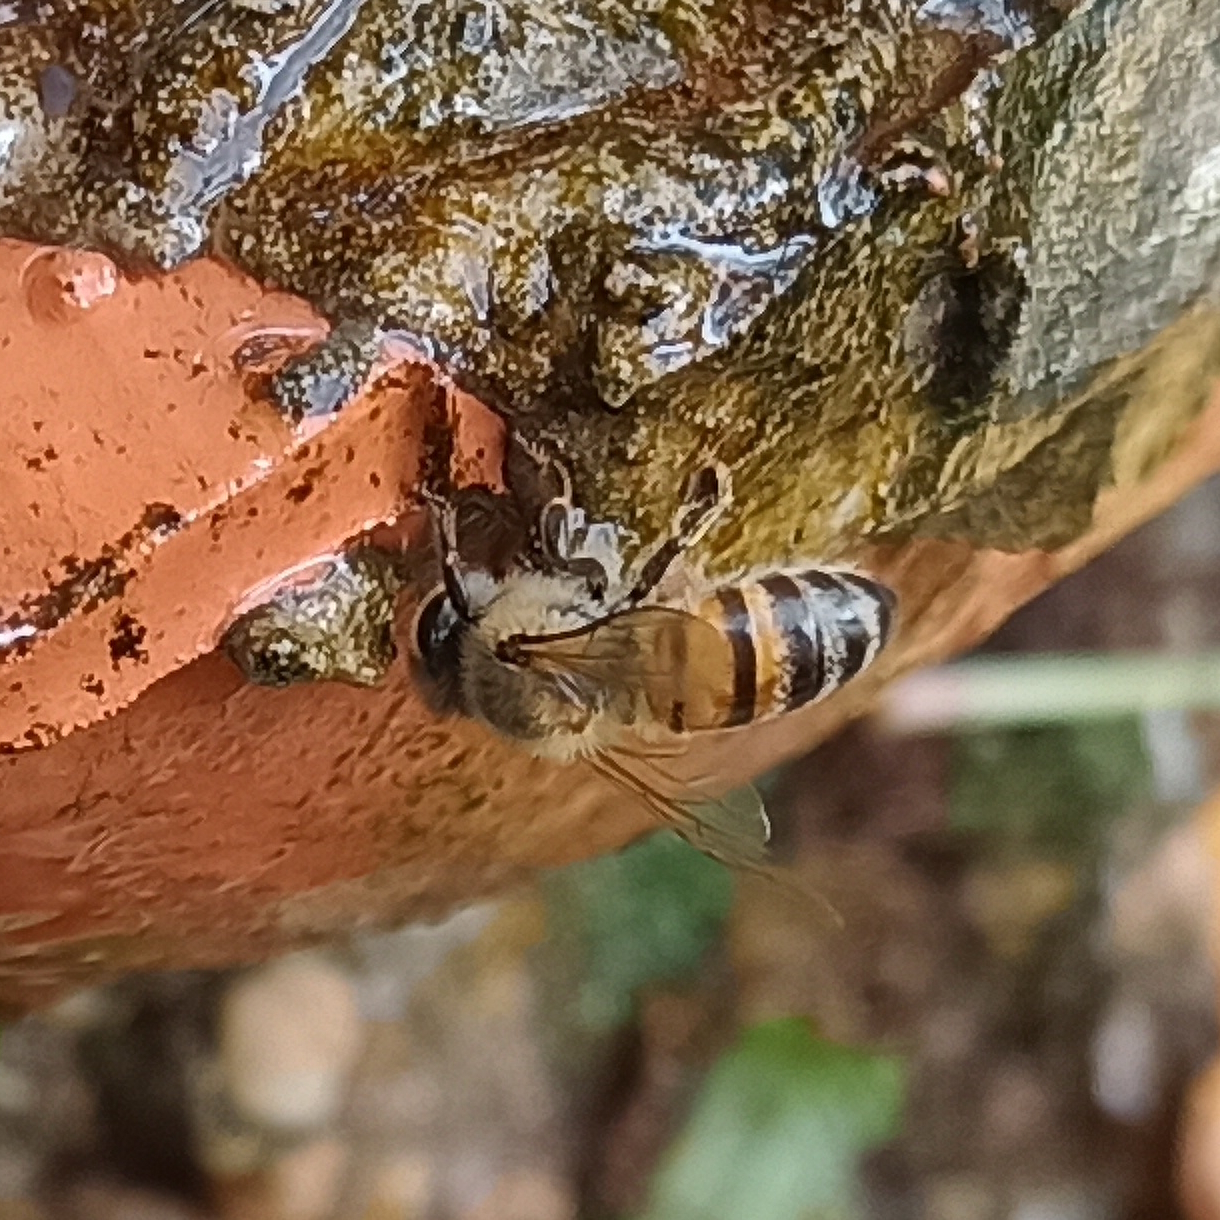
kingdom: Animalia
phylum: Arthropoda
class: Insecta
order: Hymenoptera
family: Apidae
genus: Apis
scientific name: Apis mellifera
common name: Honey bee
